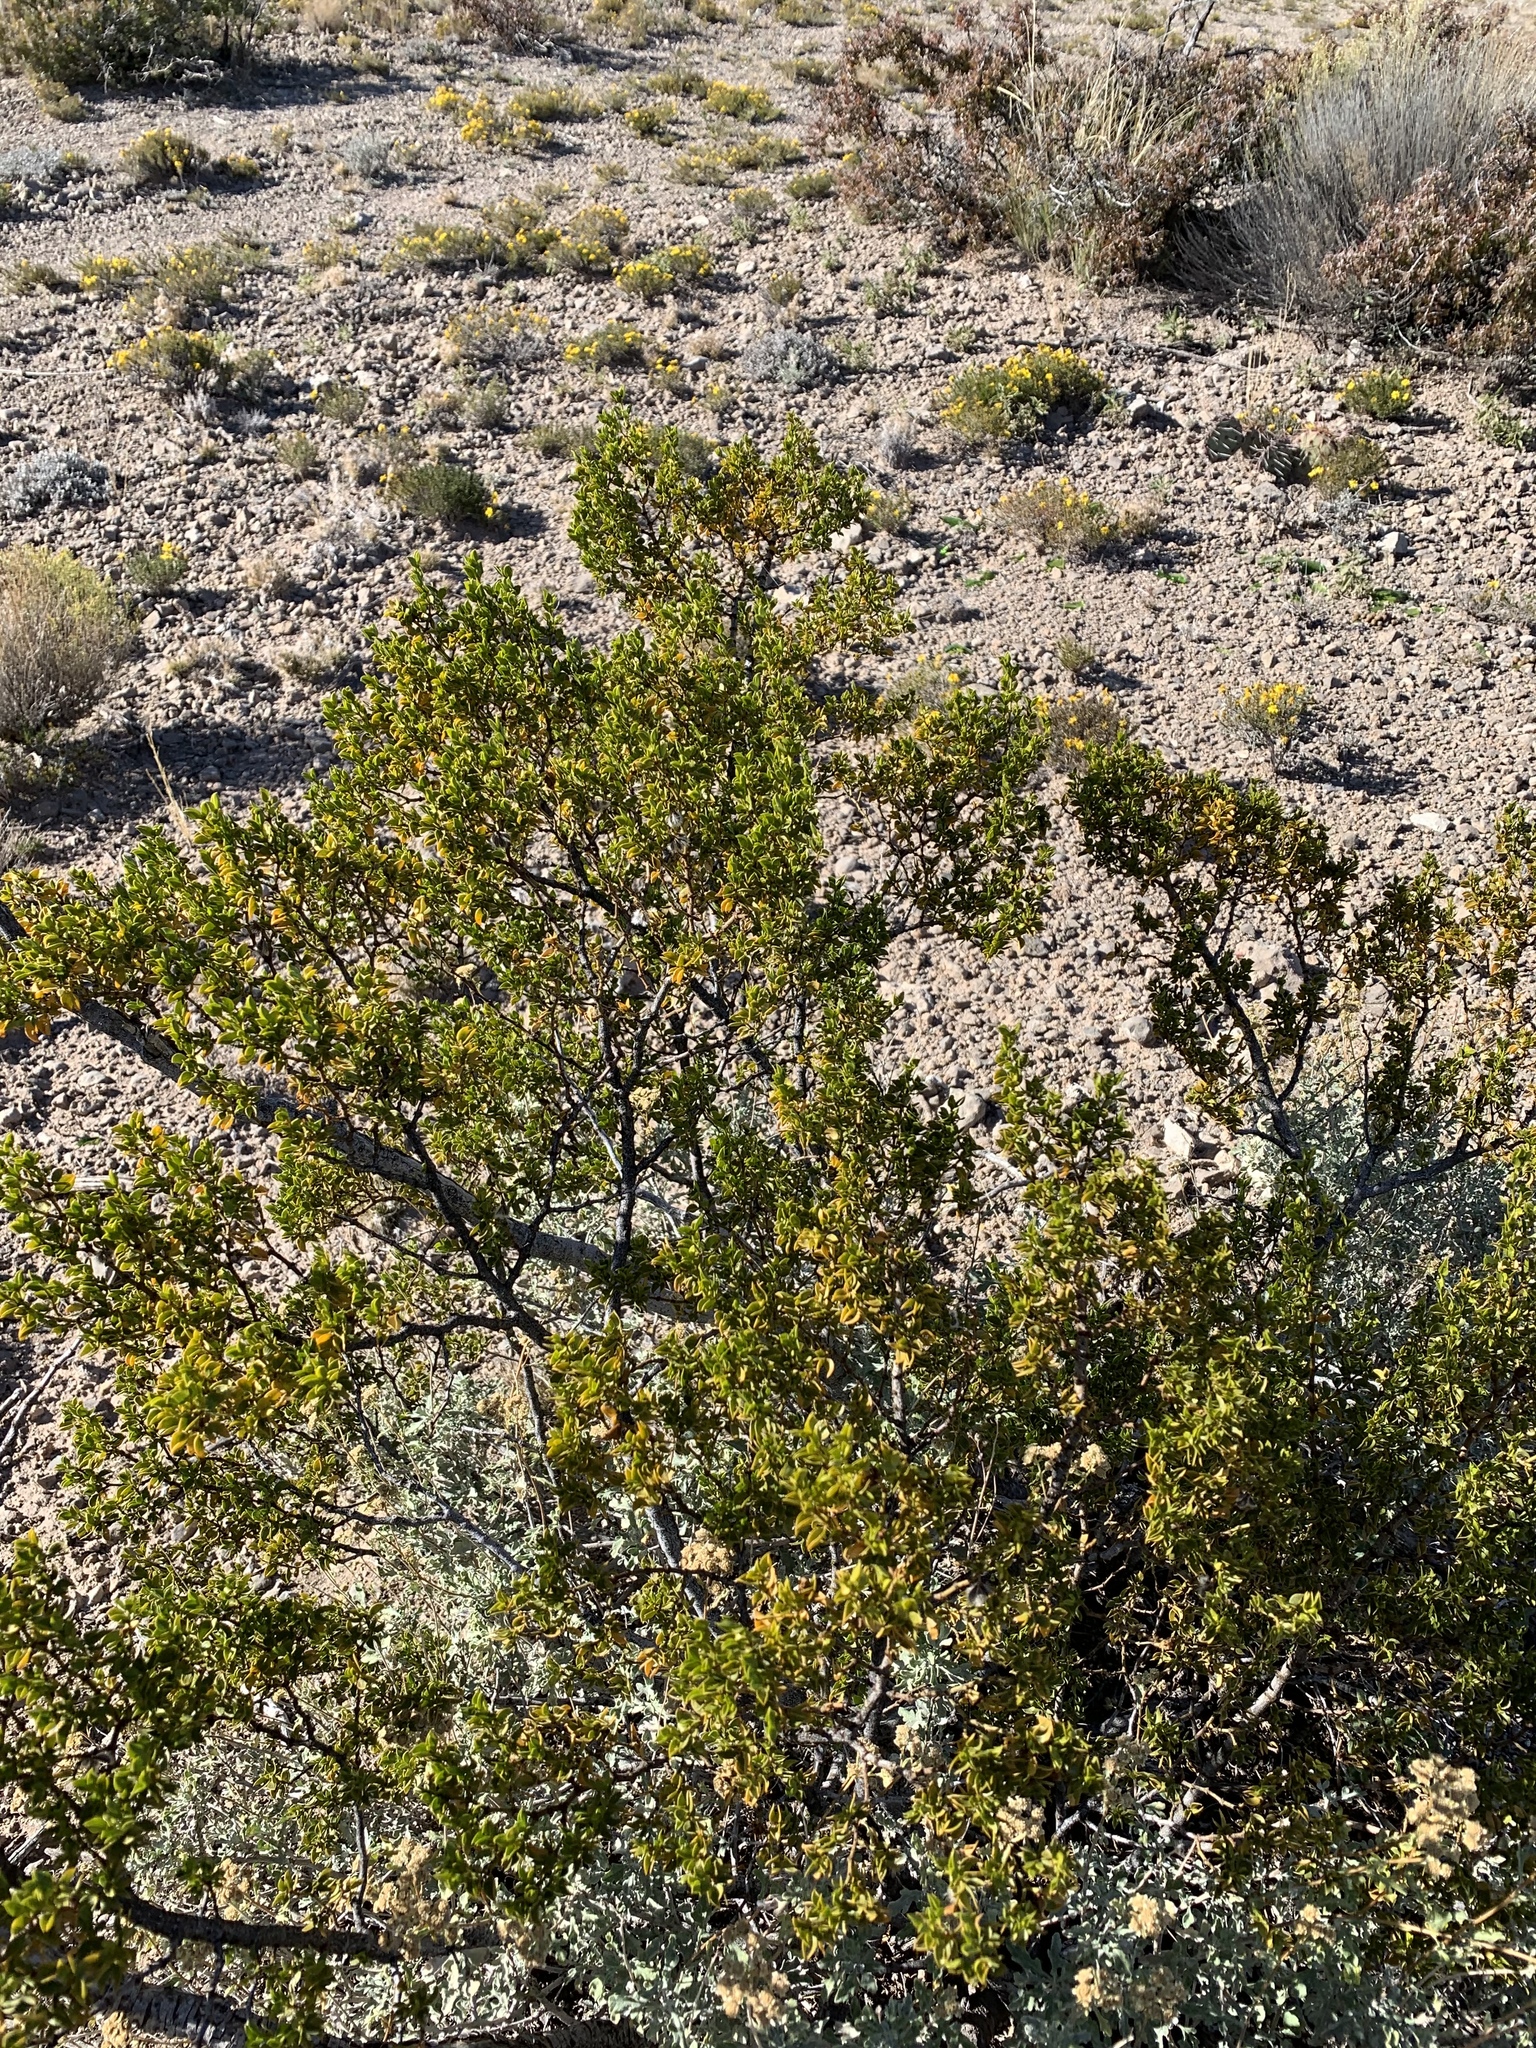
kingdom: Plantae
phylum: Tracheophyta
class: Magnoliopsida
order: Zygophyllales
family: Zygophyllaceae
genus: Larrea
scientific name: Larrea tridentata
